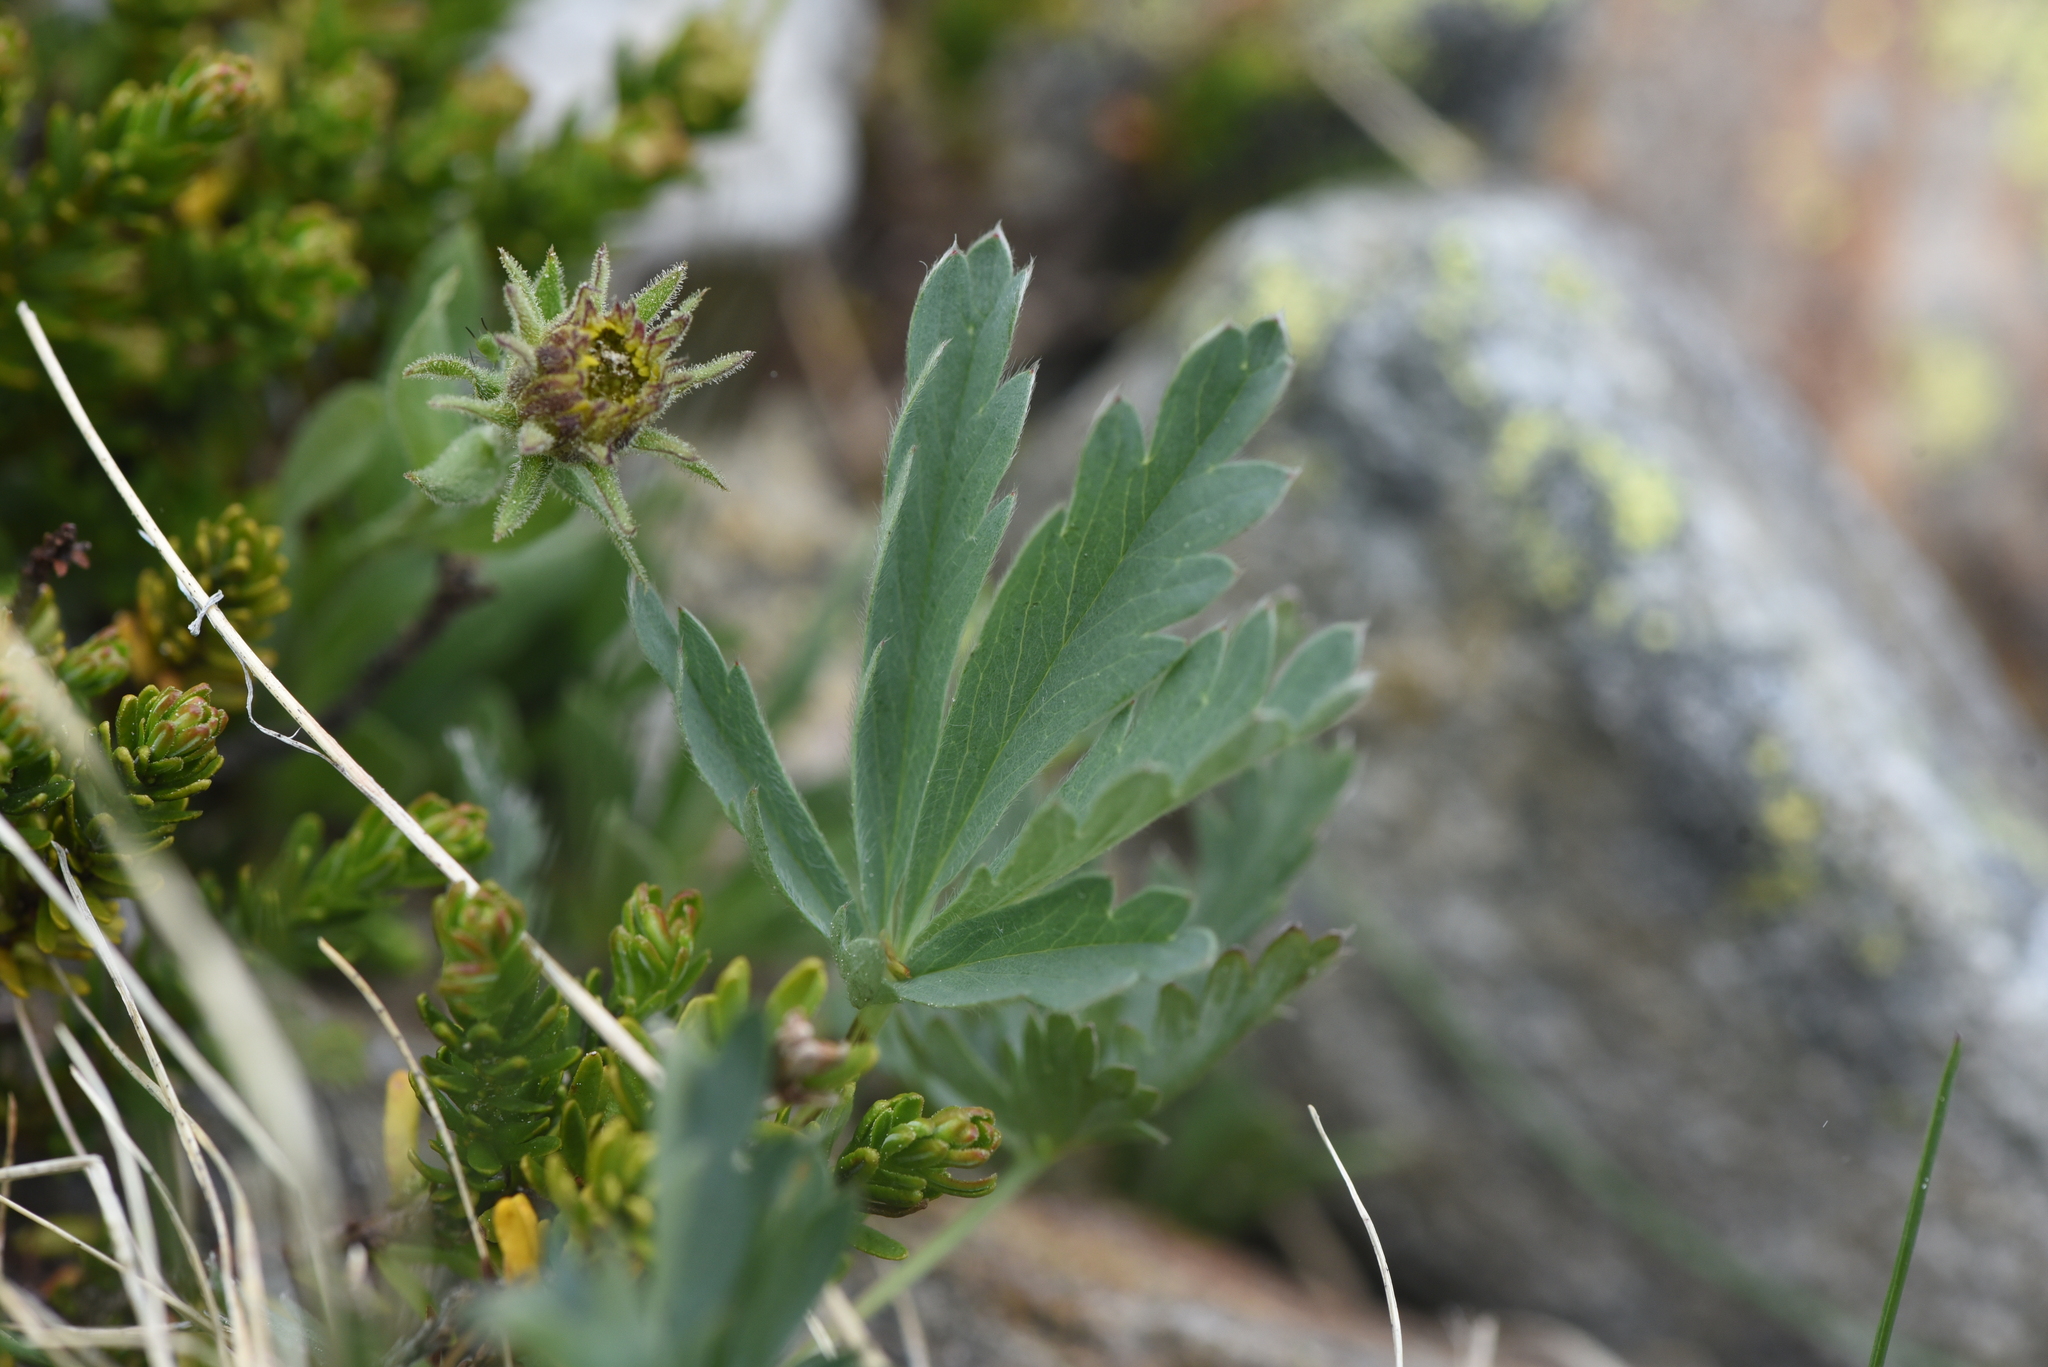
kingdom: Plantae
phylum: Tracheophyta
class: Magnoliopsida
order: Rosales
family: Rosaceae
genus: Potentilla
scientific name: Potentilla glaucophylla
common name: Blue-leaved cinquefoil
